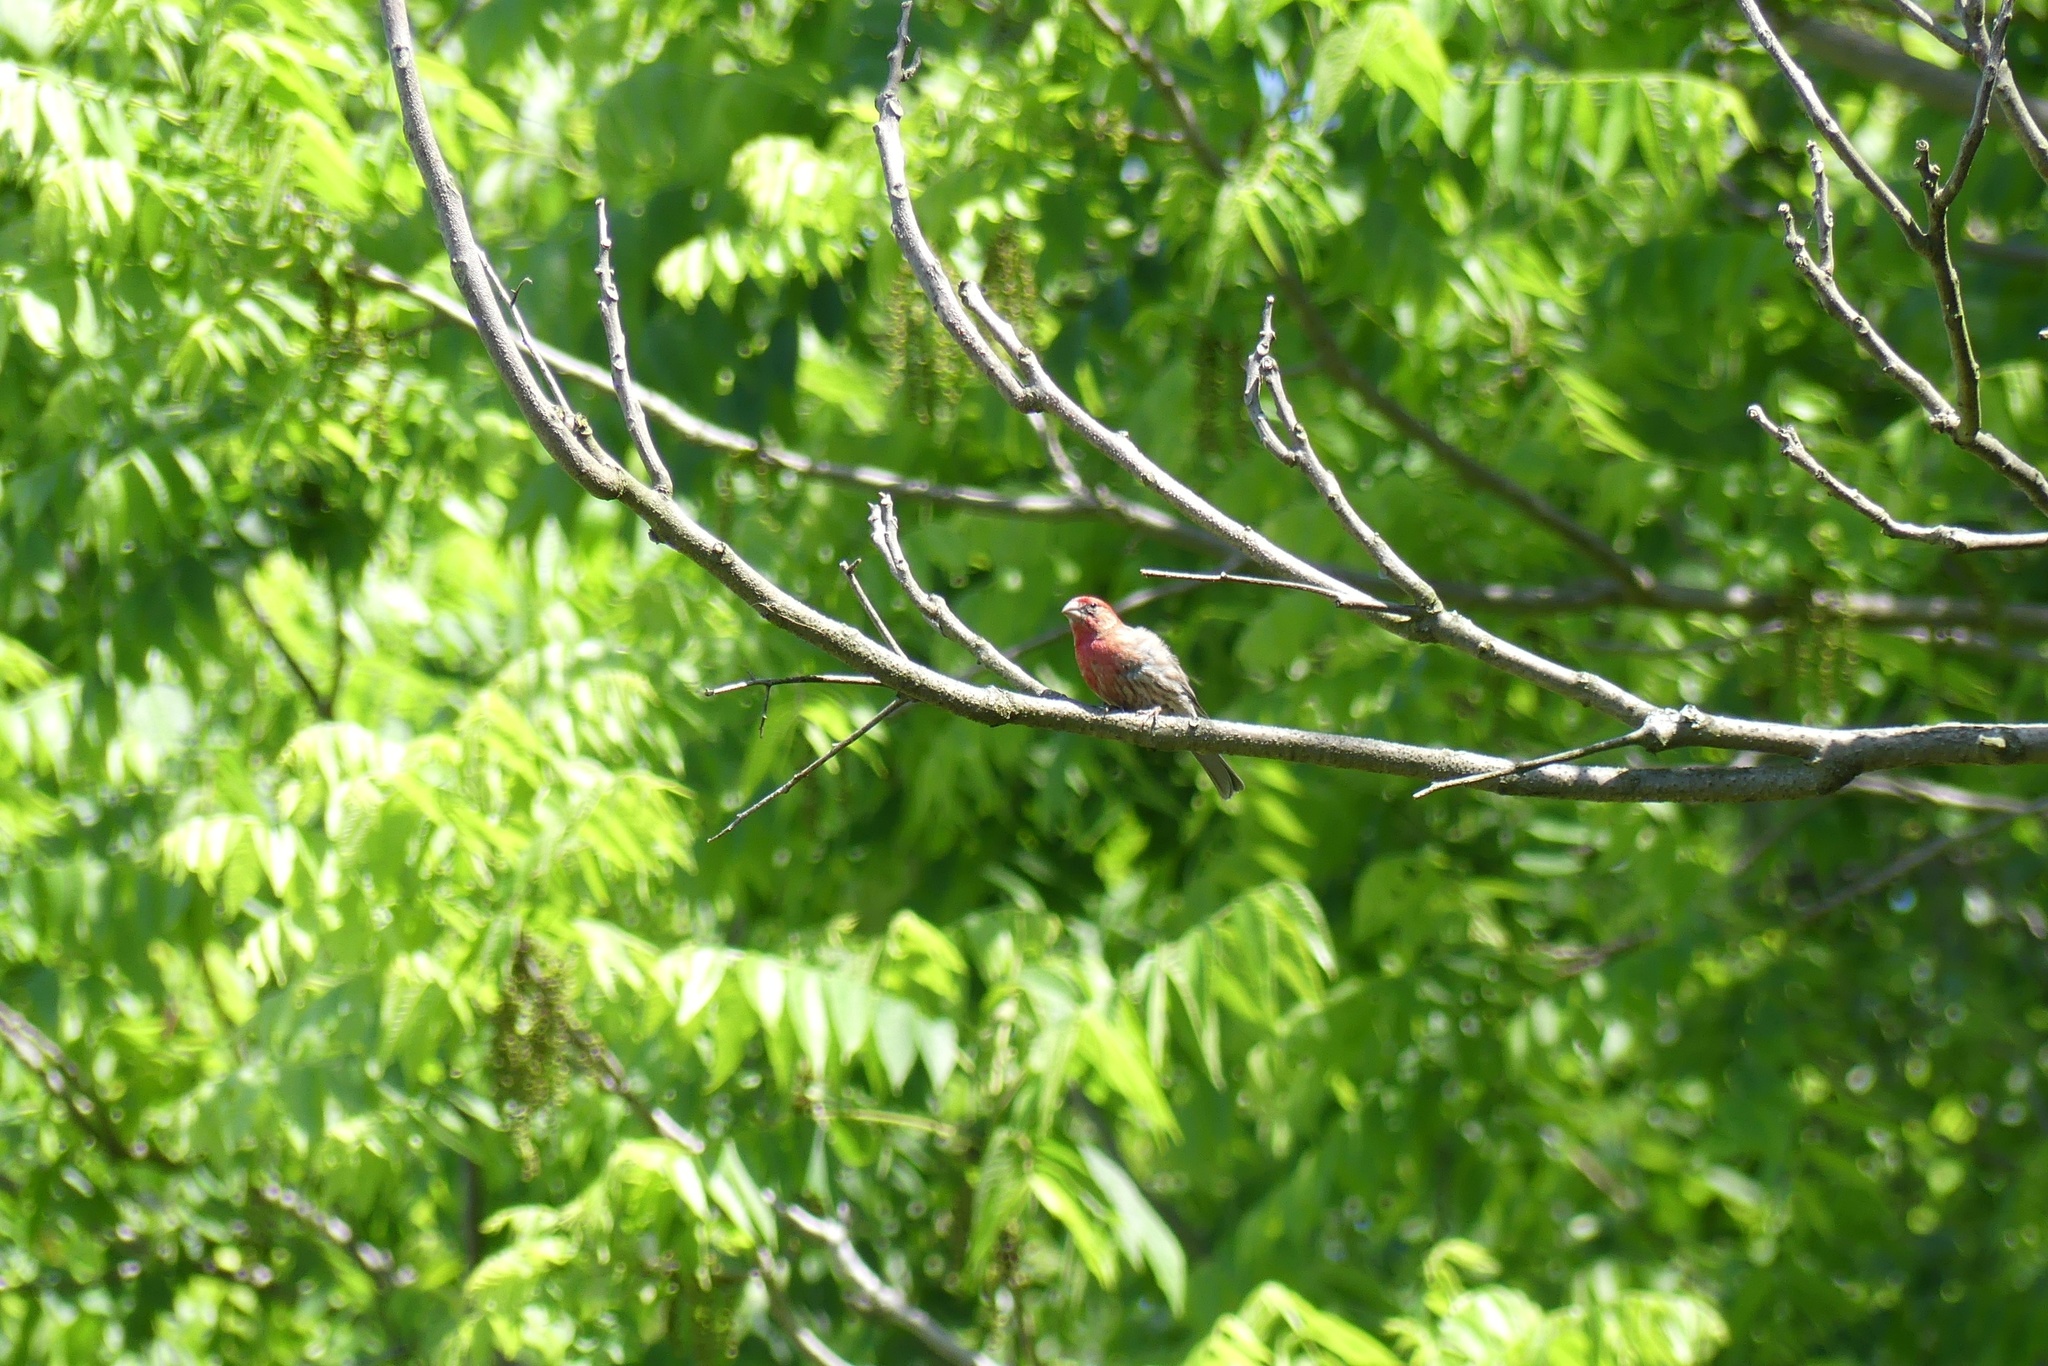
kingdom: Animalia
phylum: Chordata
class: Aves
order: Passeriformes
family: Fringillidae
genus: Haemorhous
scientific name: Haemorhous mexicanus
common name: House finch
